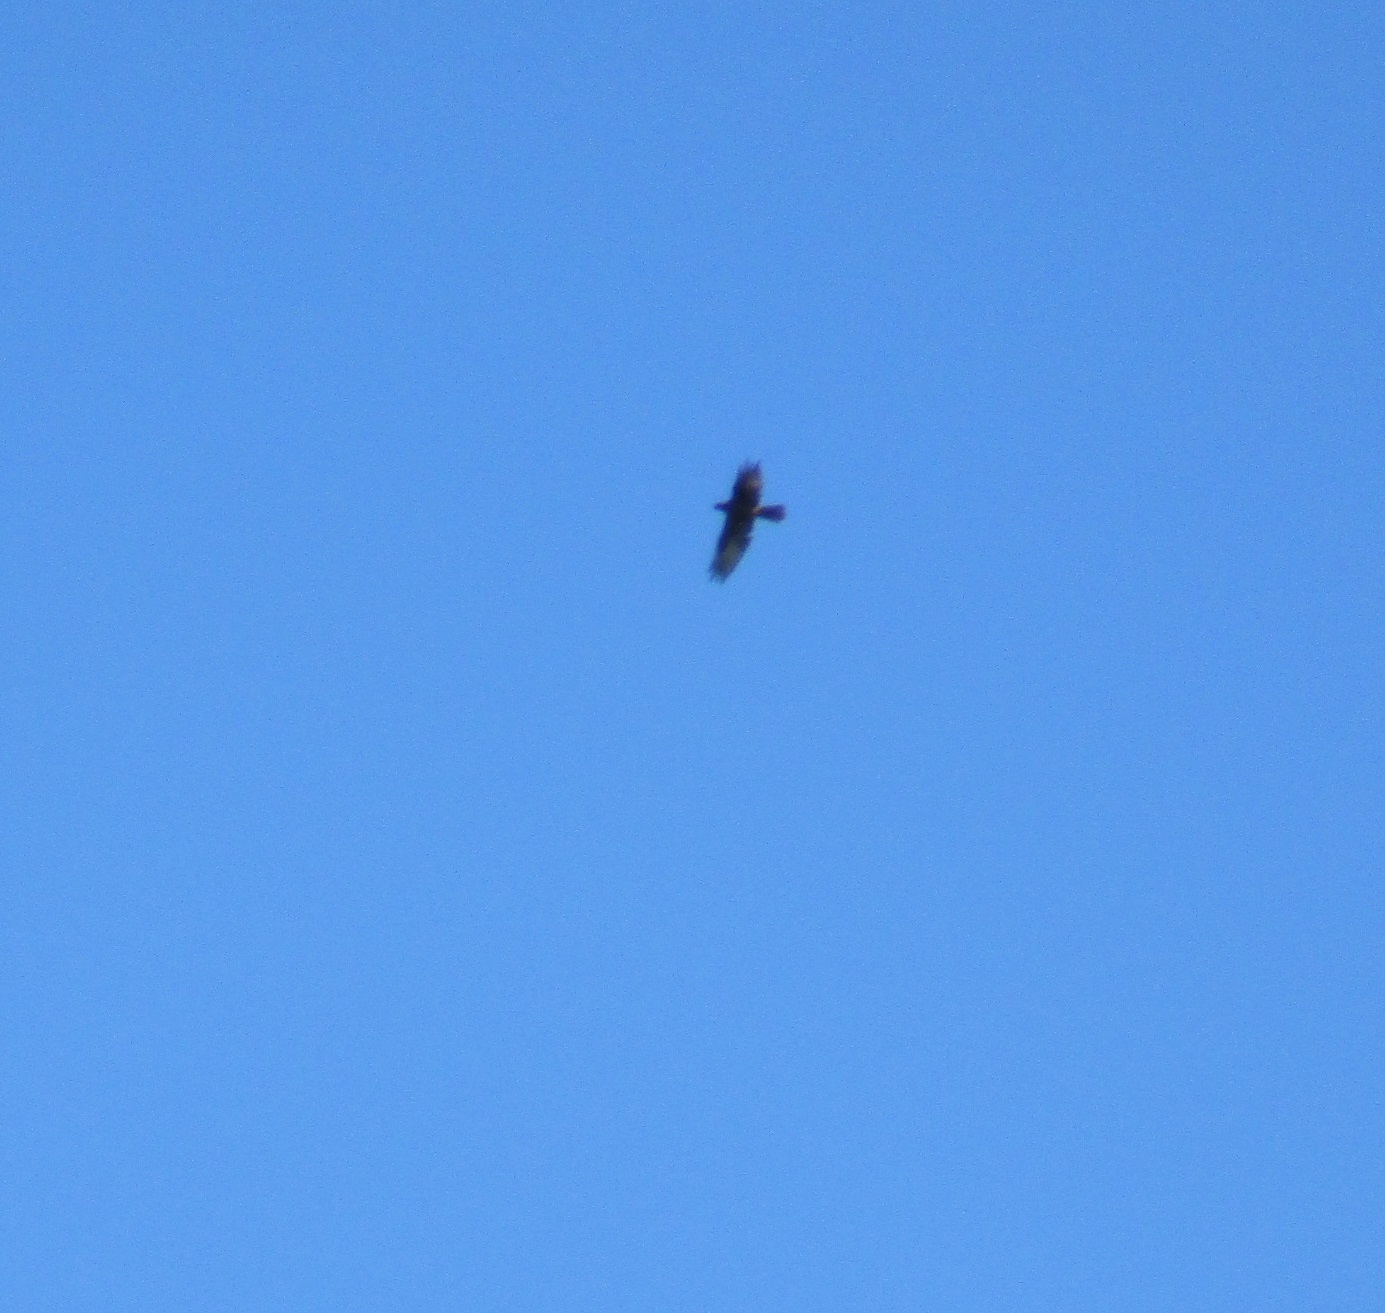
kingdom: Animalia
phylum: Chordata
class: Aves
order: Accipitriformes
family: Accipitridae
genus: Circus
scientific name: Circus approximans
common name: Swamp harrier
